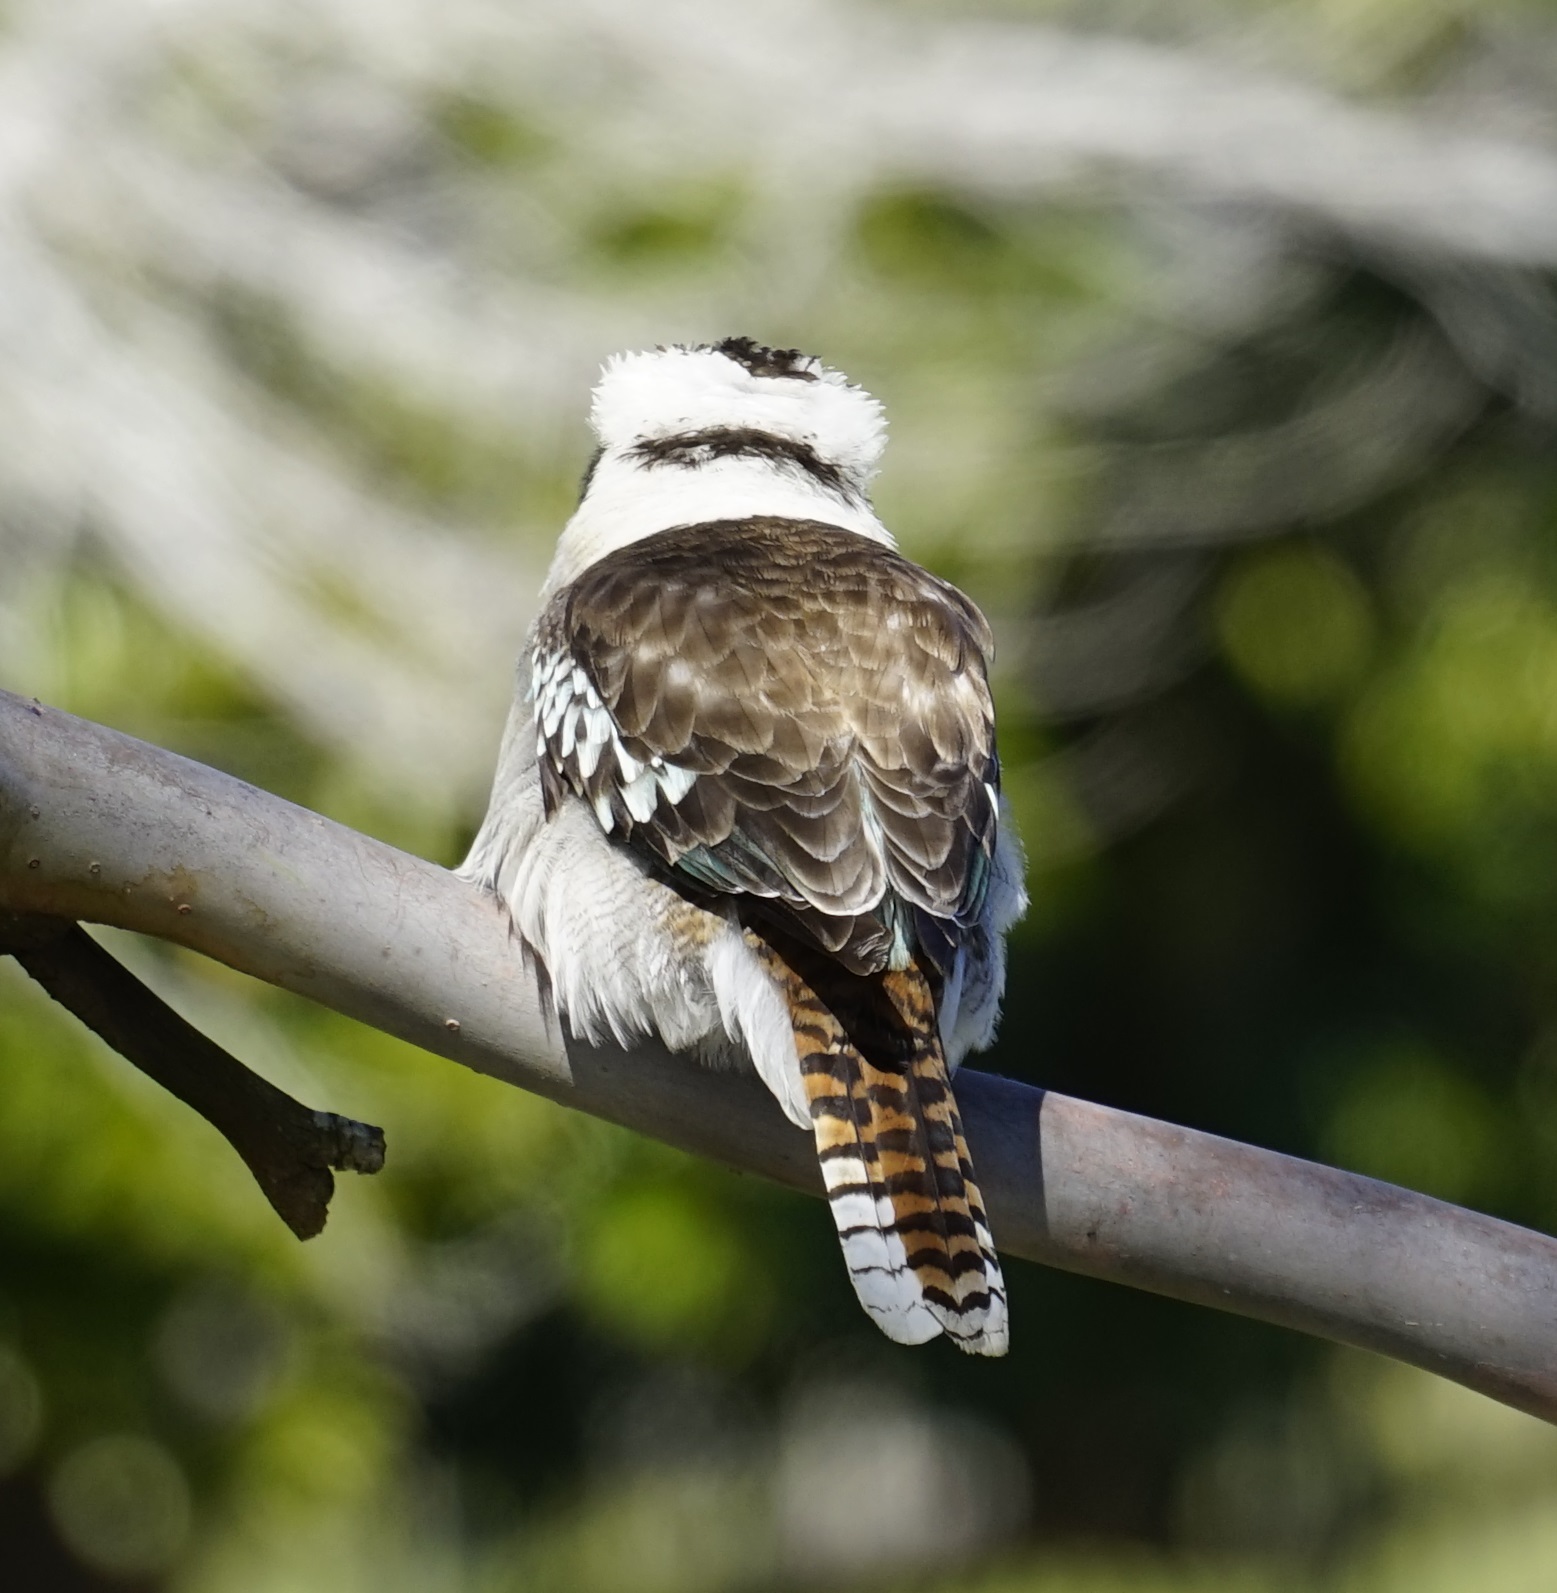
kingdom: Animalia
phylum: Chordata
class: Aves
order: Coraciiformes
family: Alcedinidae
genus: Dacelo
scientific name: Dacelo novaeguineae
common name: Laughing kookaburra
